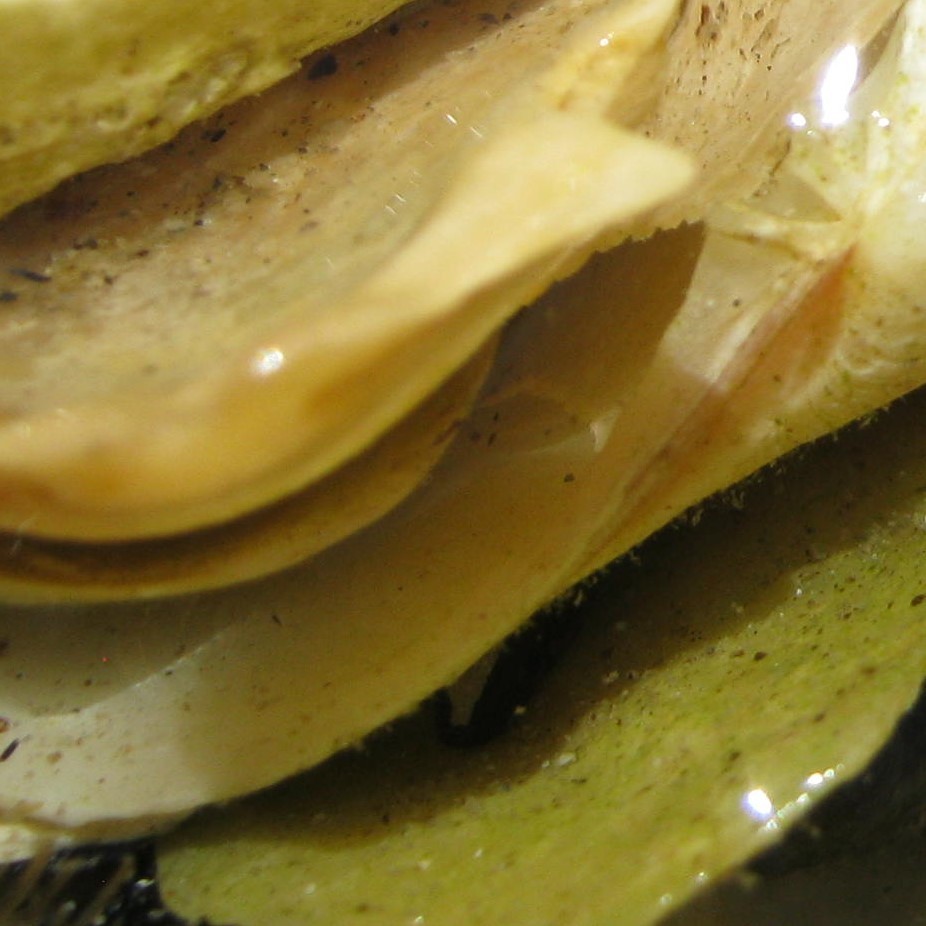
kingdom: Animalia
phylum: Chordata
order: Perciformes
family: Plesiopidae
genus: Acanthoclinus
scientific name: Acanthoclinus fuscus
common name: Olive rockfish
